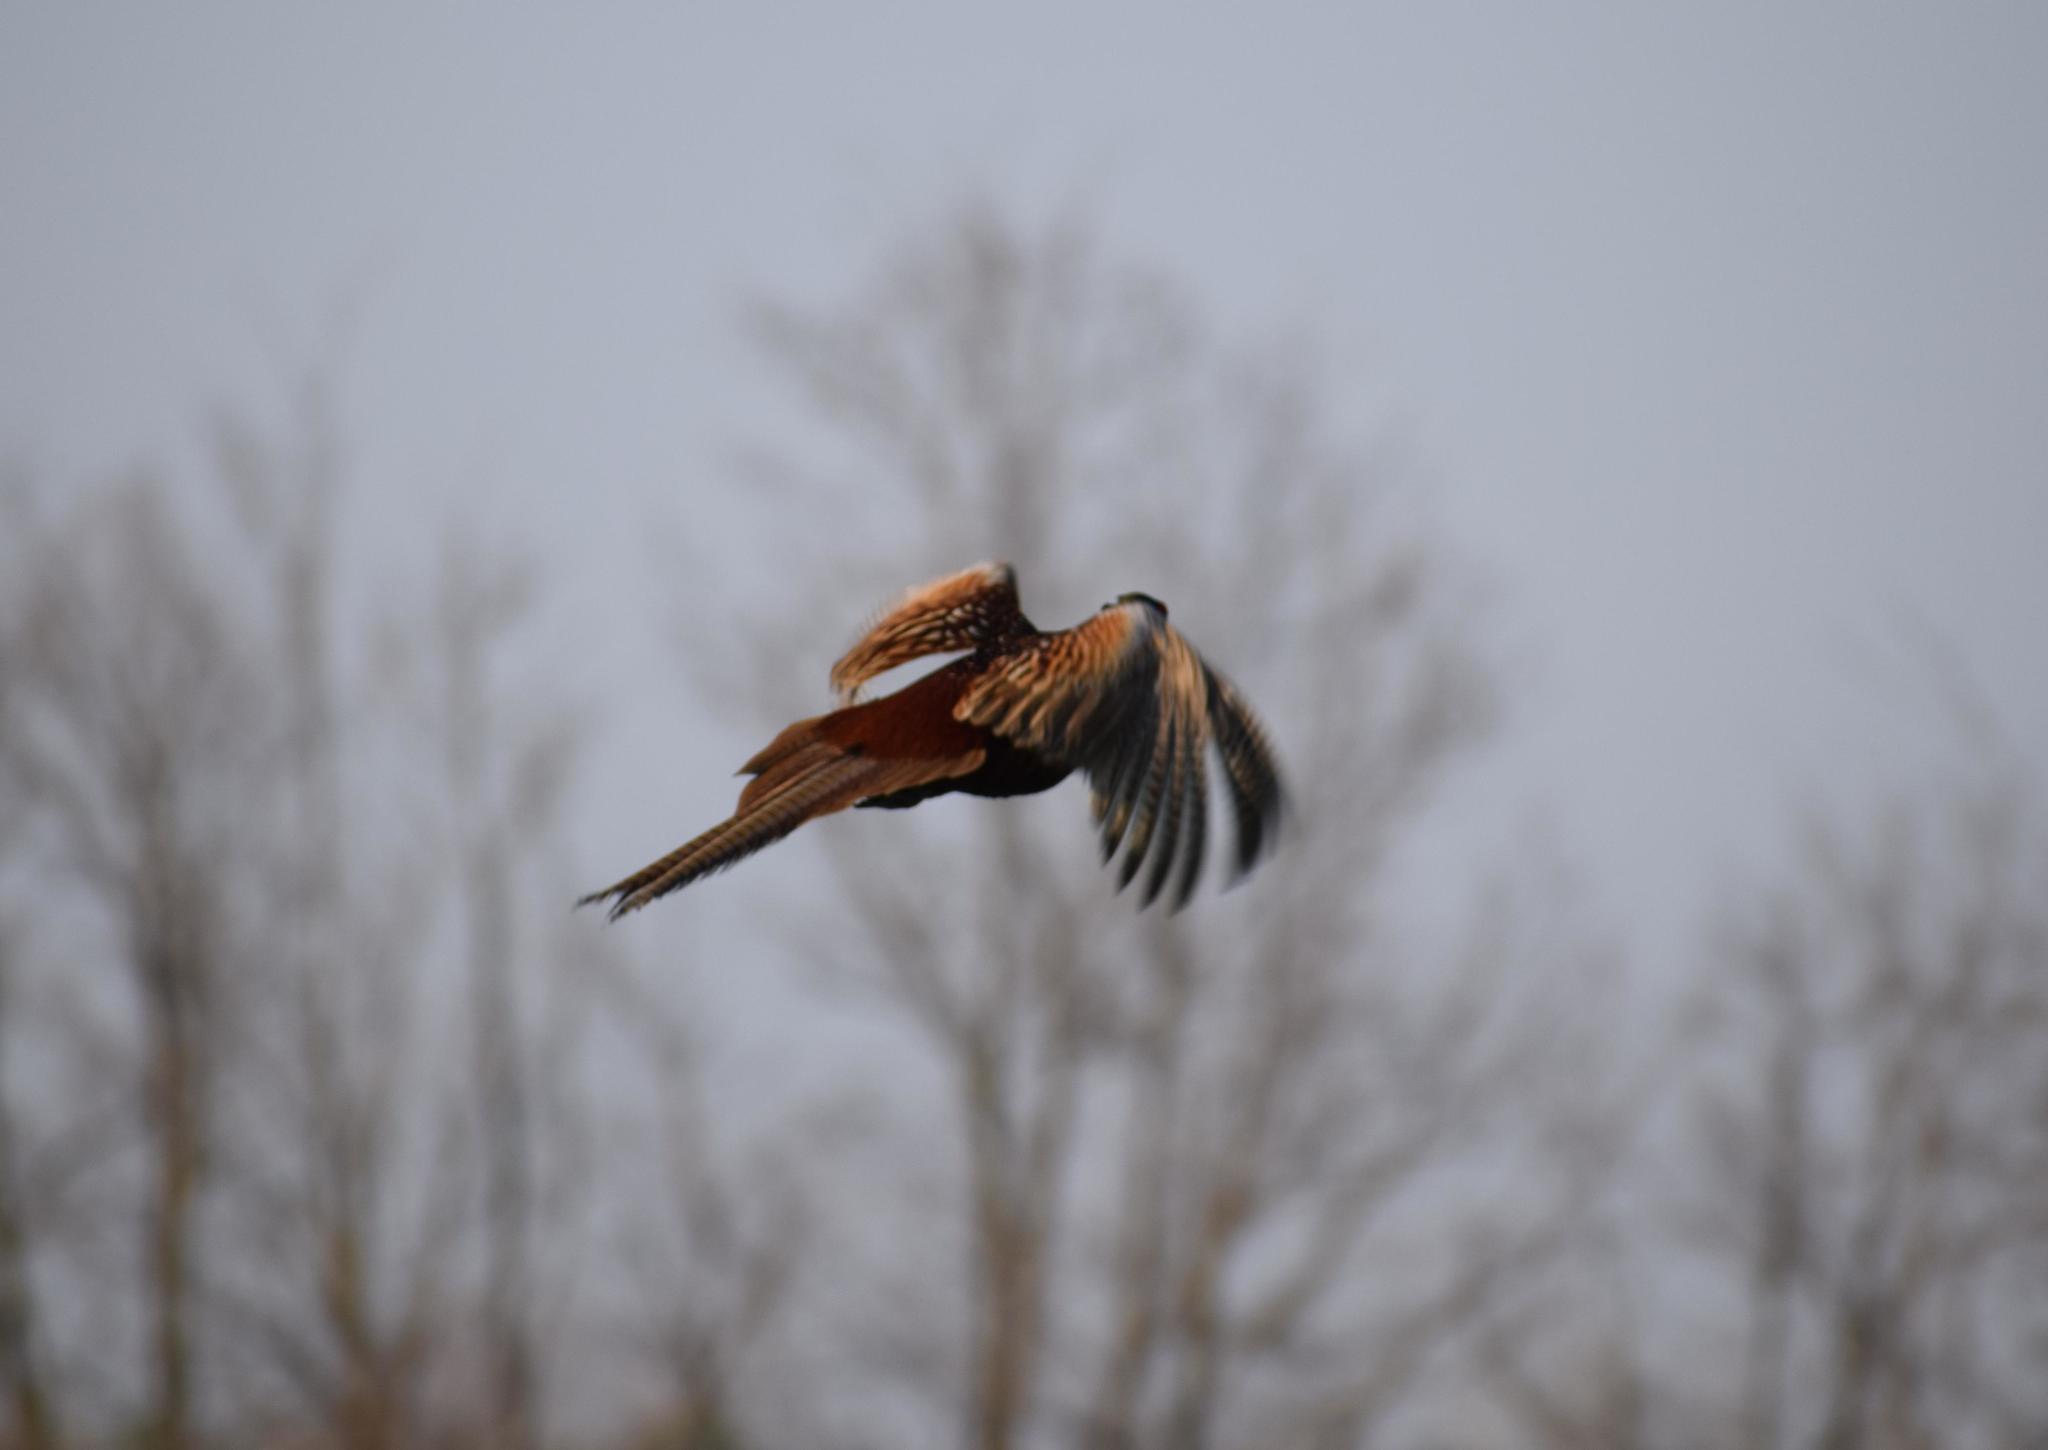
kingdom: Animalia
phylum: Chordata
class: Aves
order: Galliformes
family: Phasianidae
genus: Phasianus
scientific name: Phasianus colchicus
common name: Common pheasant
